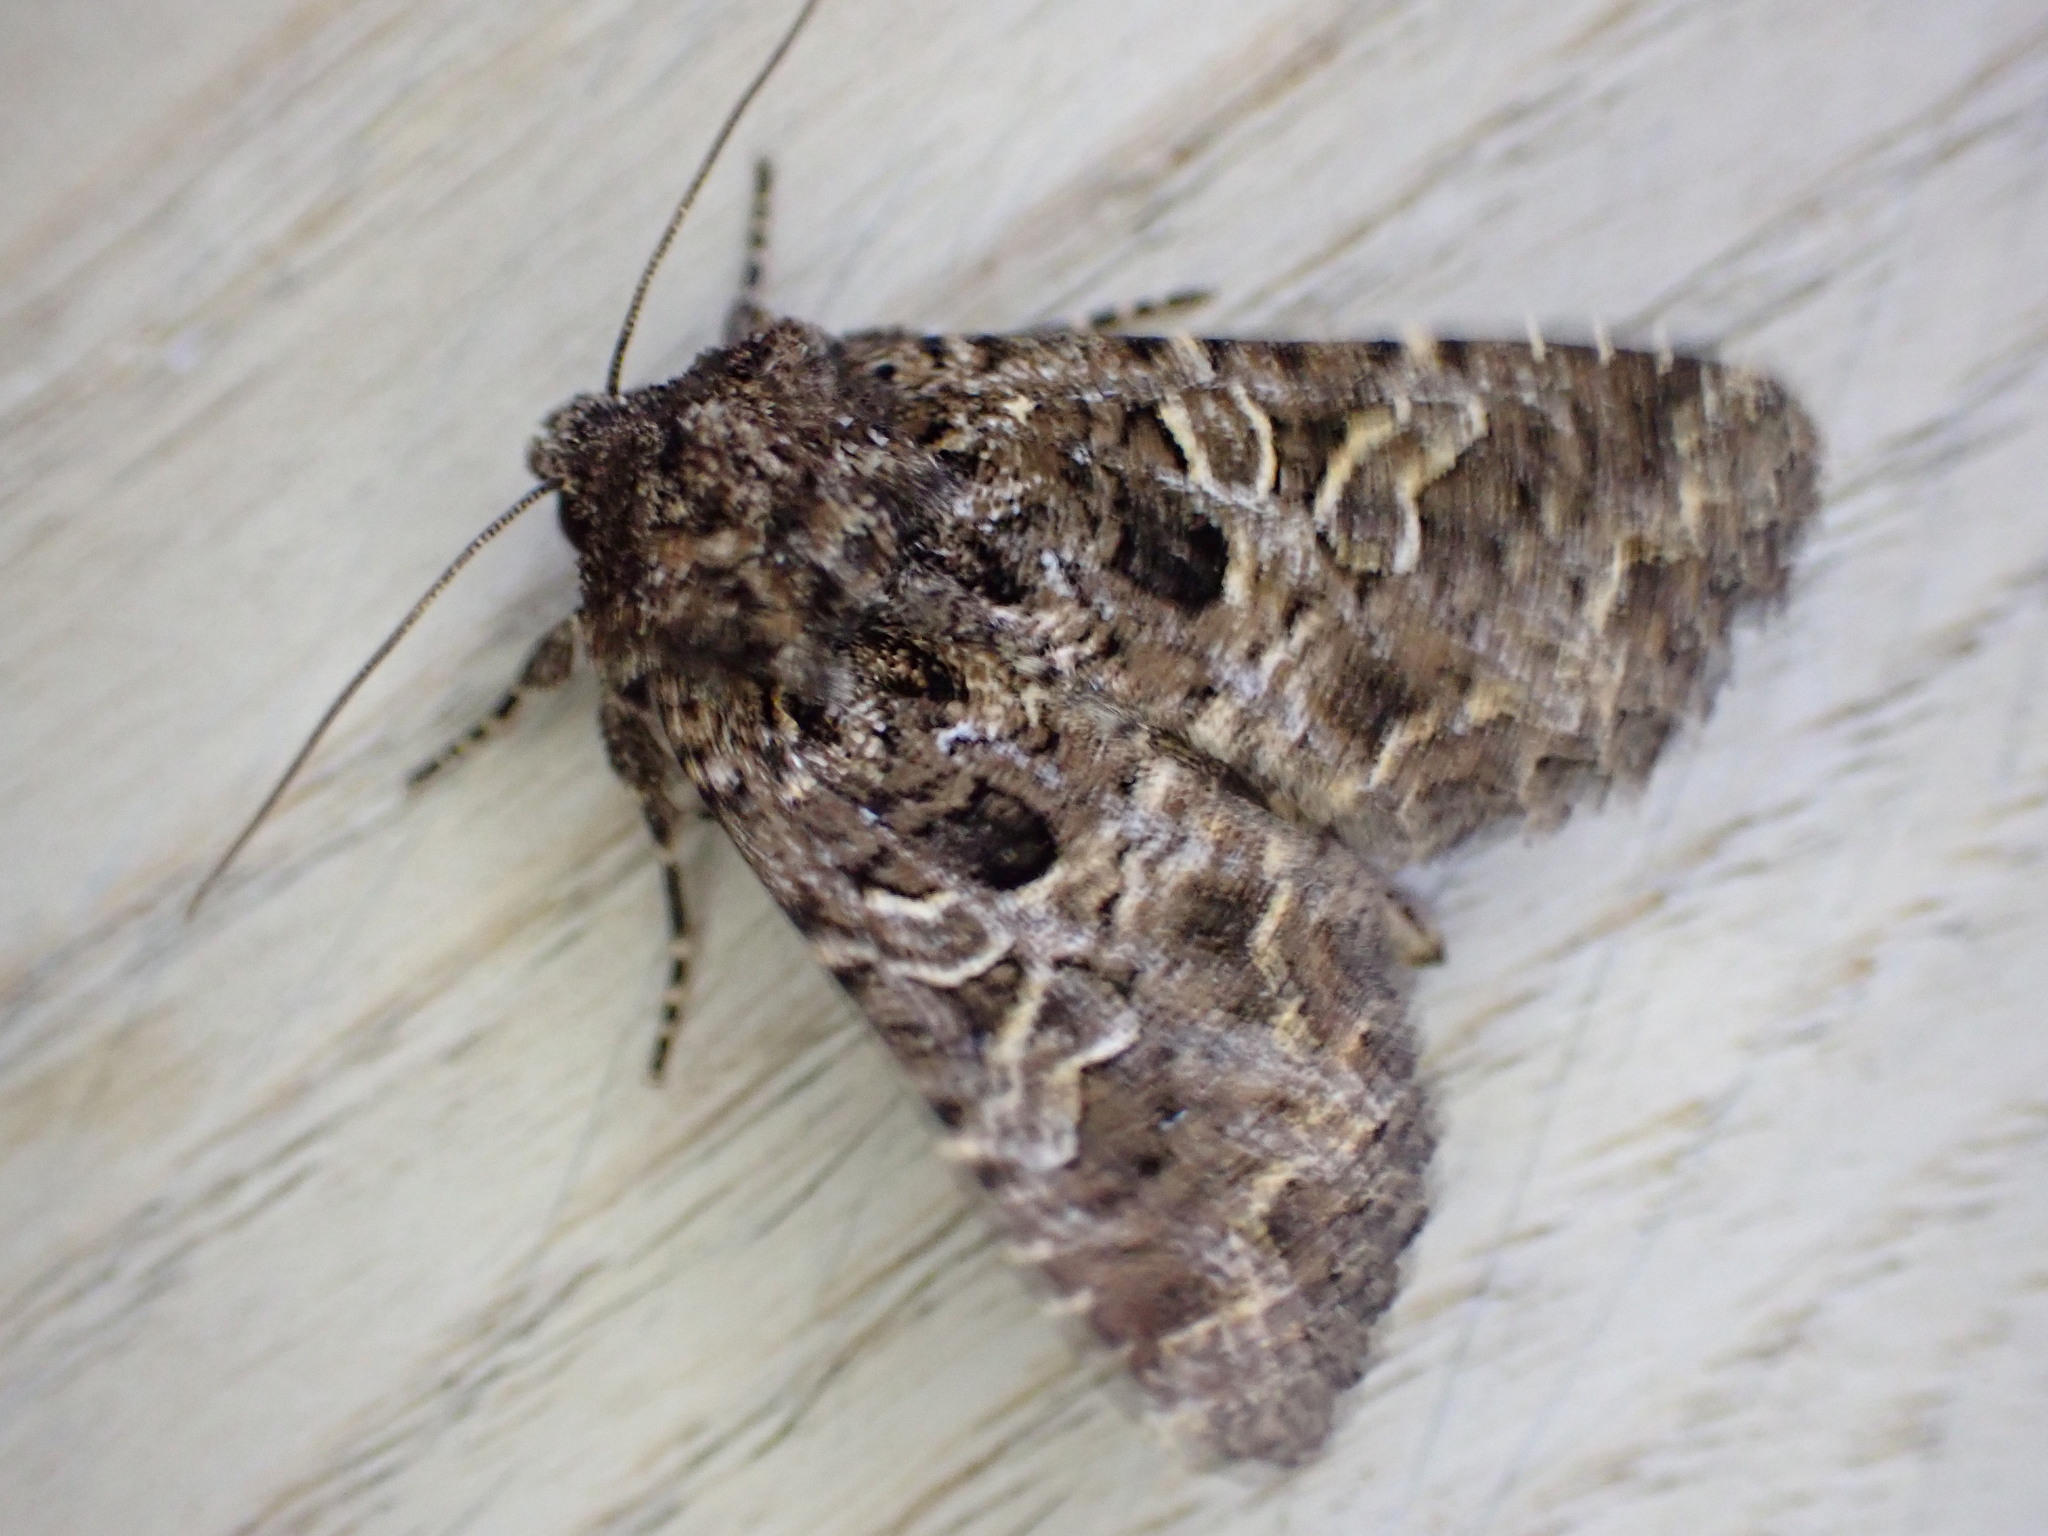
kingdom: Animalia
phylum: Arthropoda
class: Insecta
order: Lepidoptera
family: Noctuidae
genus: Hadena
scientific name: Hadena bicruris
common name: Lychnis
